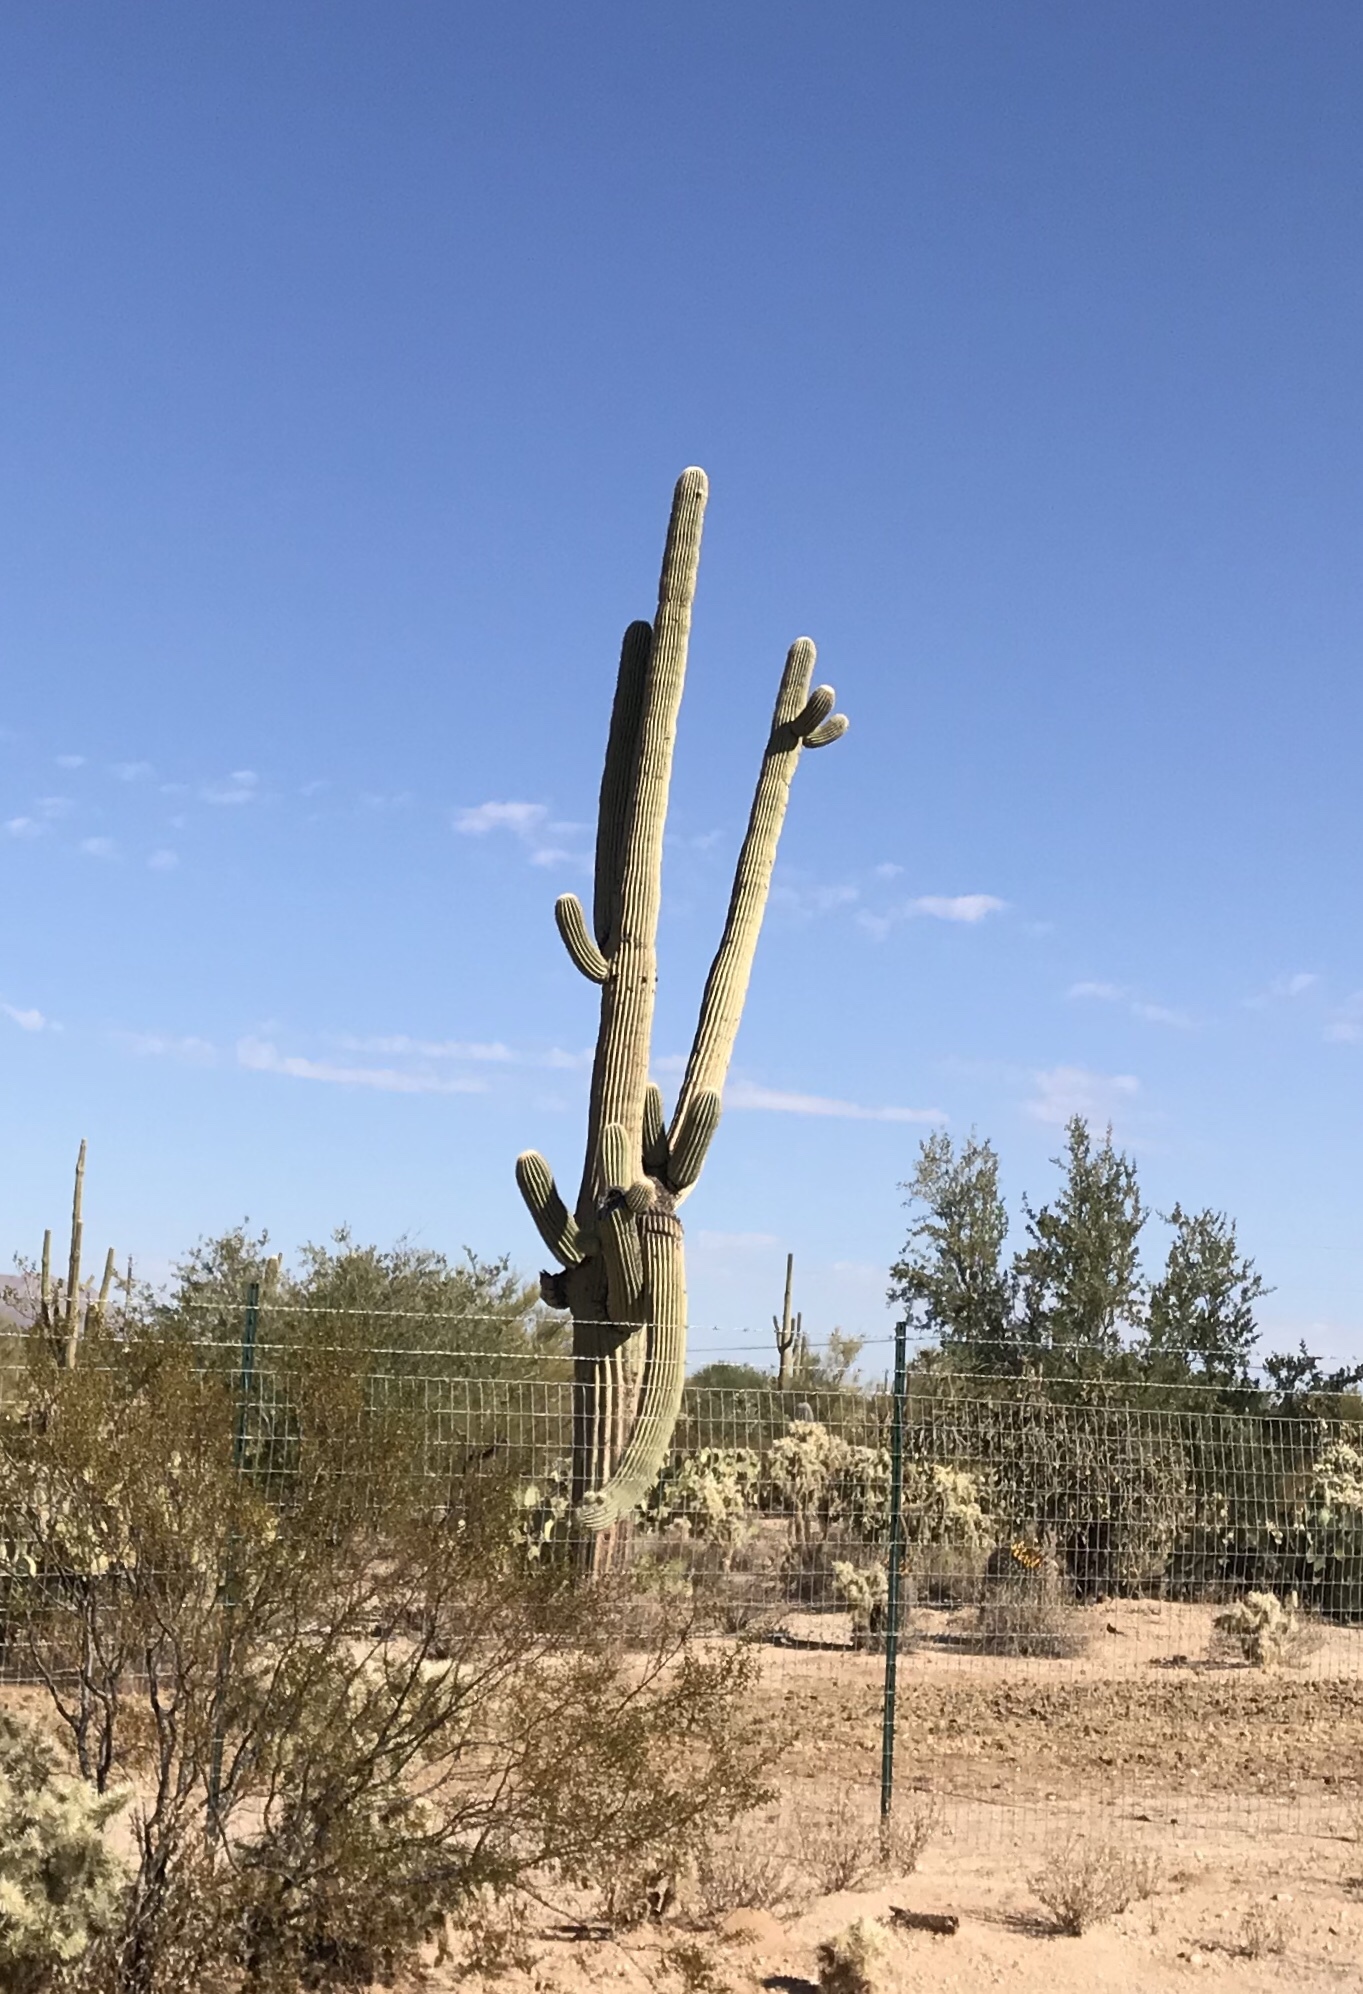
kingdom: Plantae
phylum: Tracheophyta
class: Magnoliopsida
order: Caryophyllales
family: Cactaceae
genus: Carnegiea
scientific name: Carnegiea gigantea
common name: Saguaro
